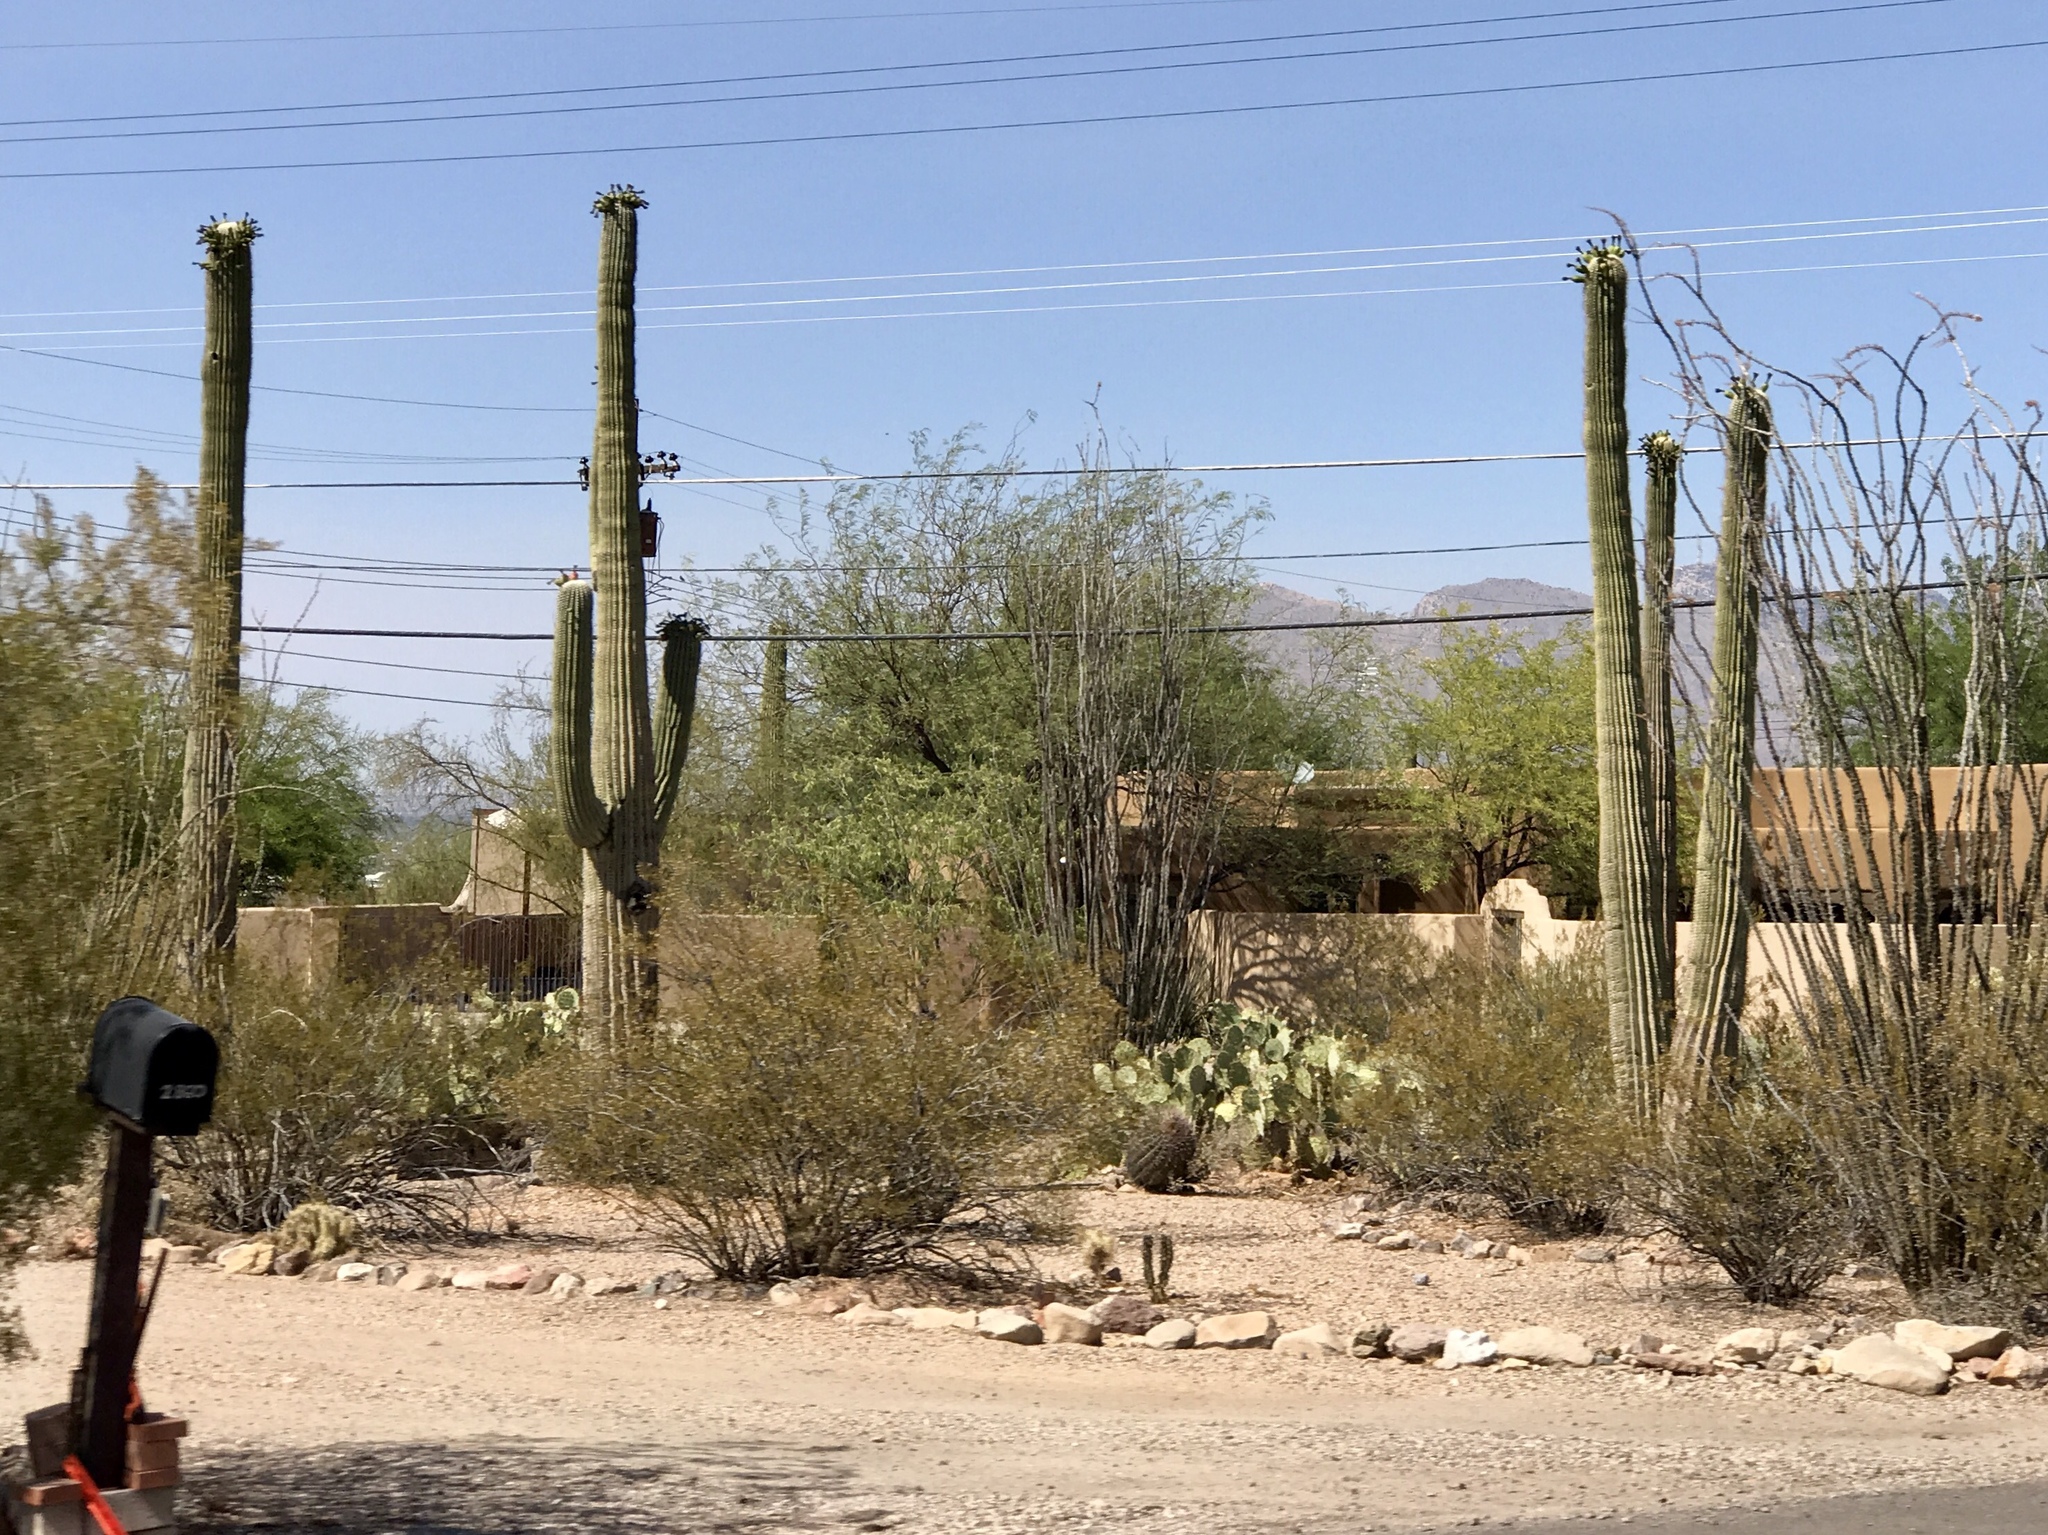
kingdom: Plantae
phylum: Tracheophyta
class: Magnoliopsida
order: Caryophyllales
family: Cactaceae
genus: Carnegiea
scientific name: Carnegiea gigantea
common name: Saguaro
